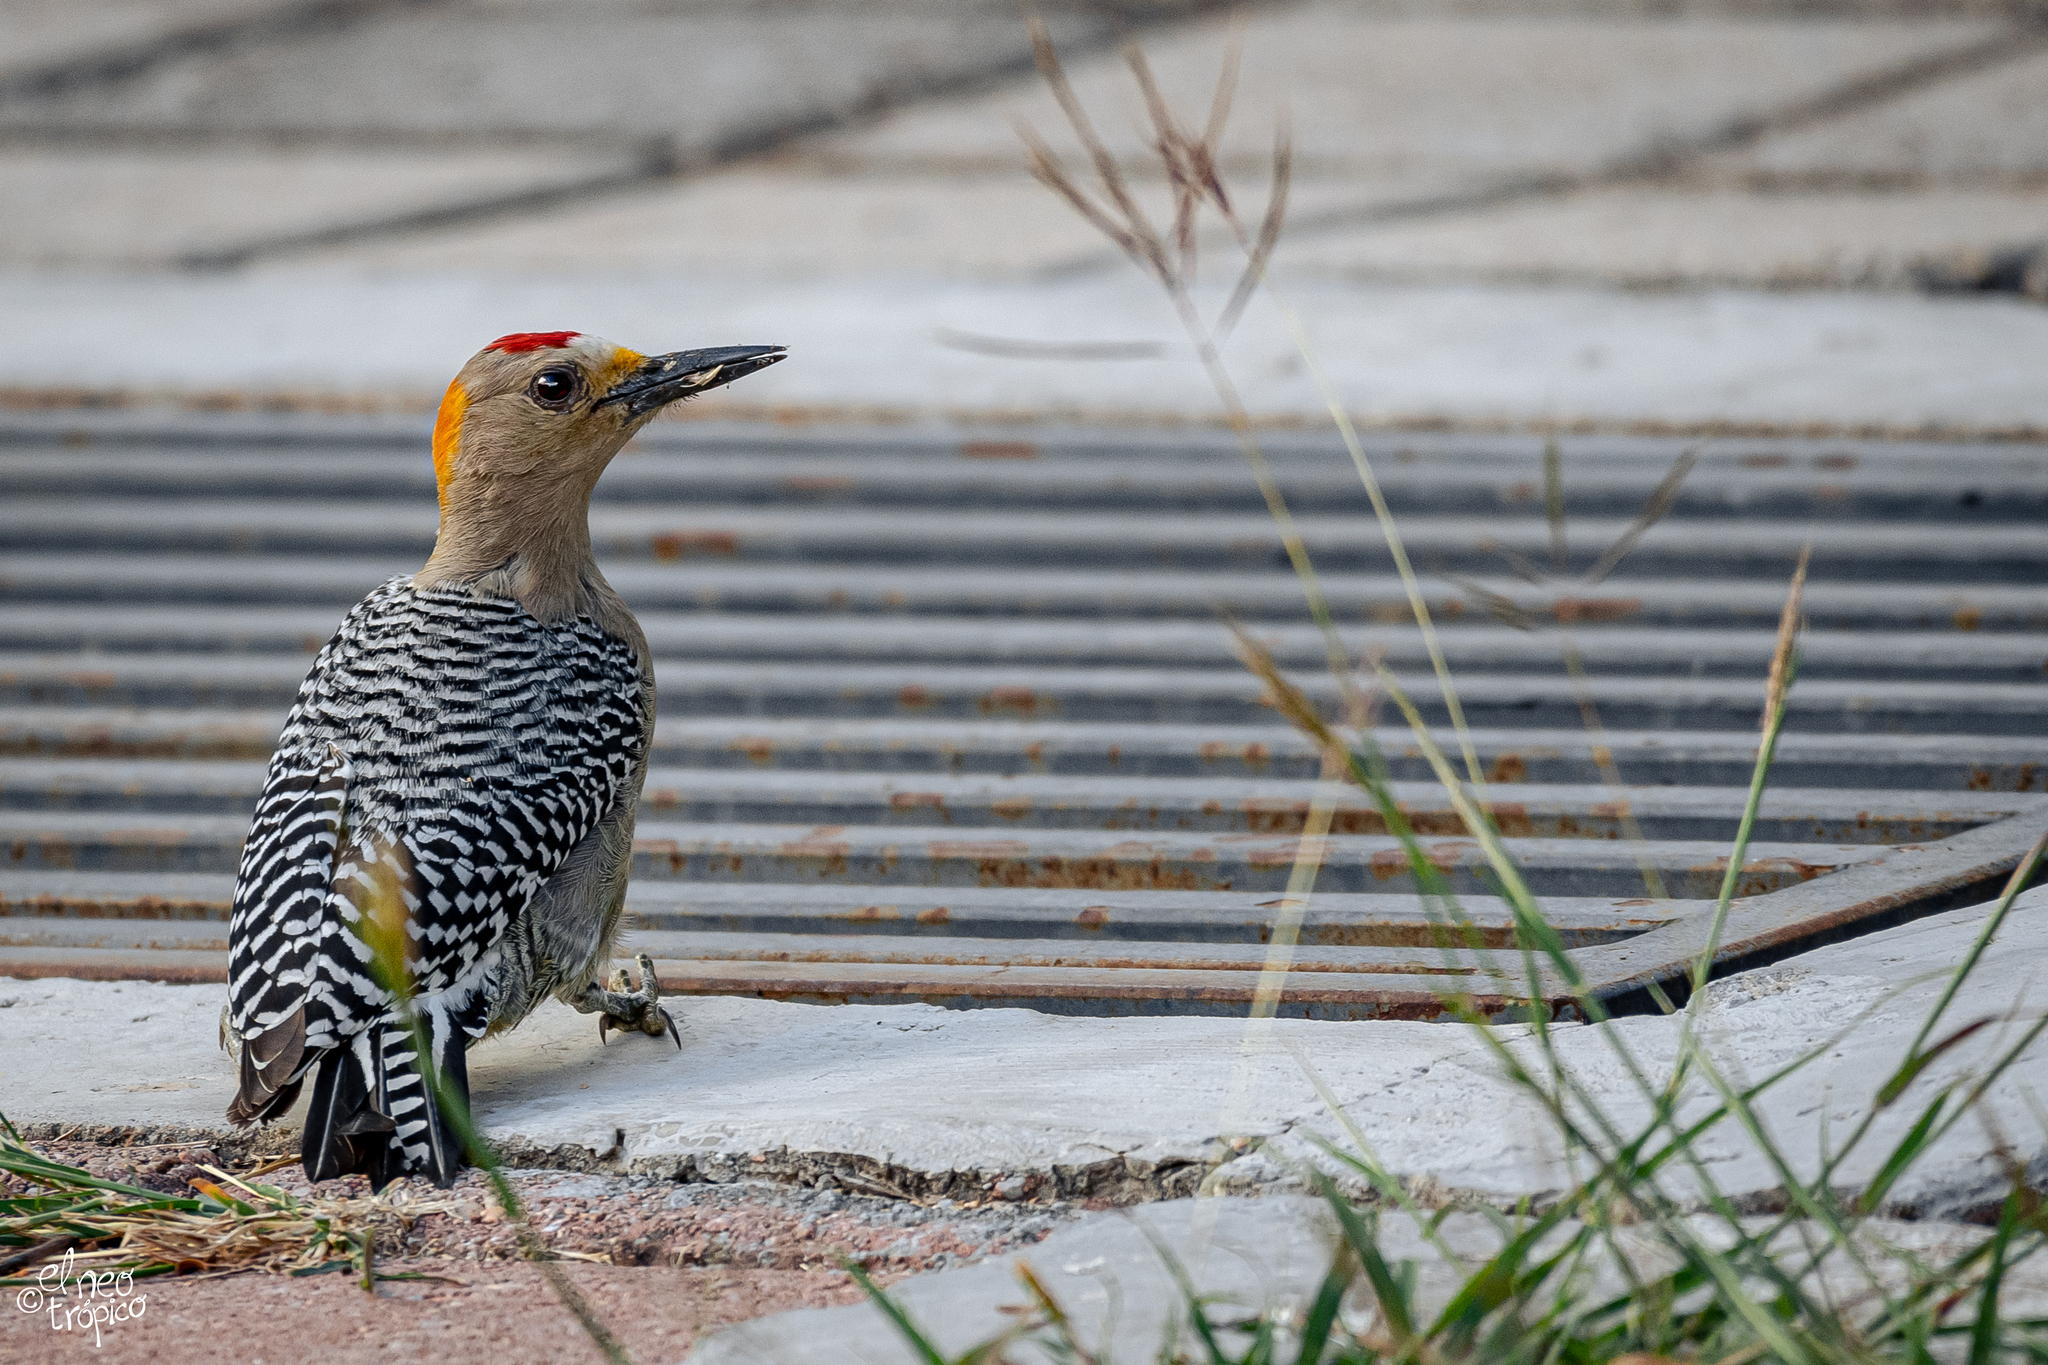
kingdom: Animalia
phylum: Chordata
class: Aves
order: Piciformes
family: Picidae
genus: Melanerpes
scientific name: Melanerpes aurifrons
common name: Golden-fronted woodpecker
